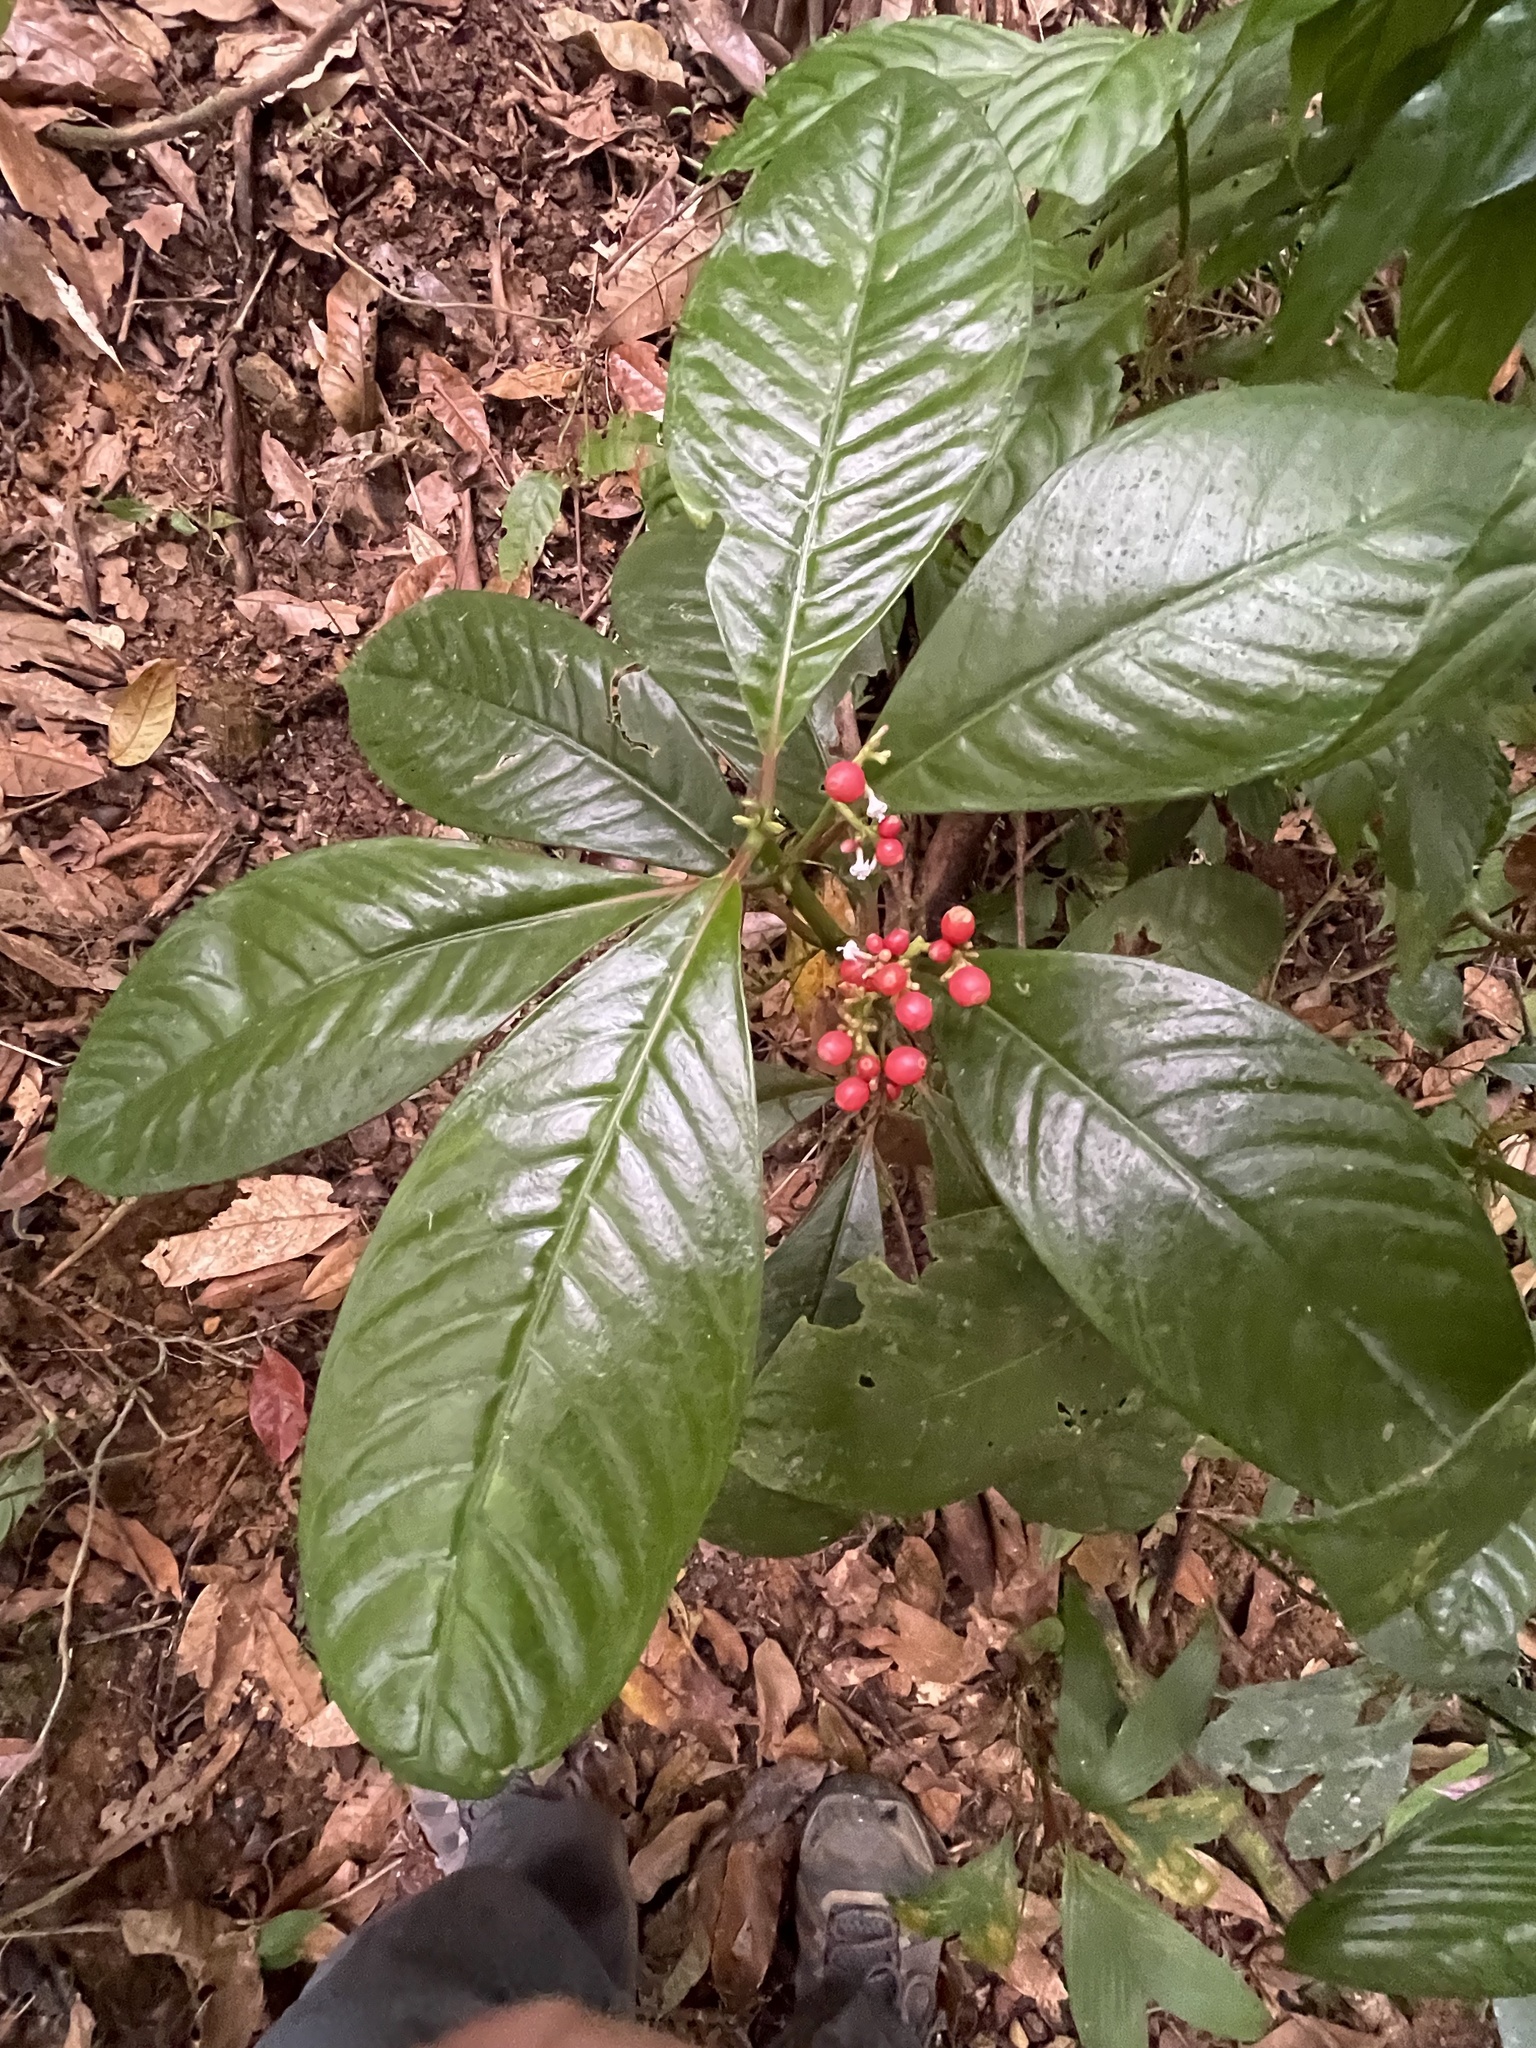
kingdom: Plantae
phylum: Tracheophyta
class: Magnoliopsida
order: Gentianales
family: Rubiaceae
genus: Notopleura
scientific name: Notopleura uliginosa
